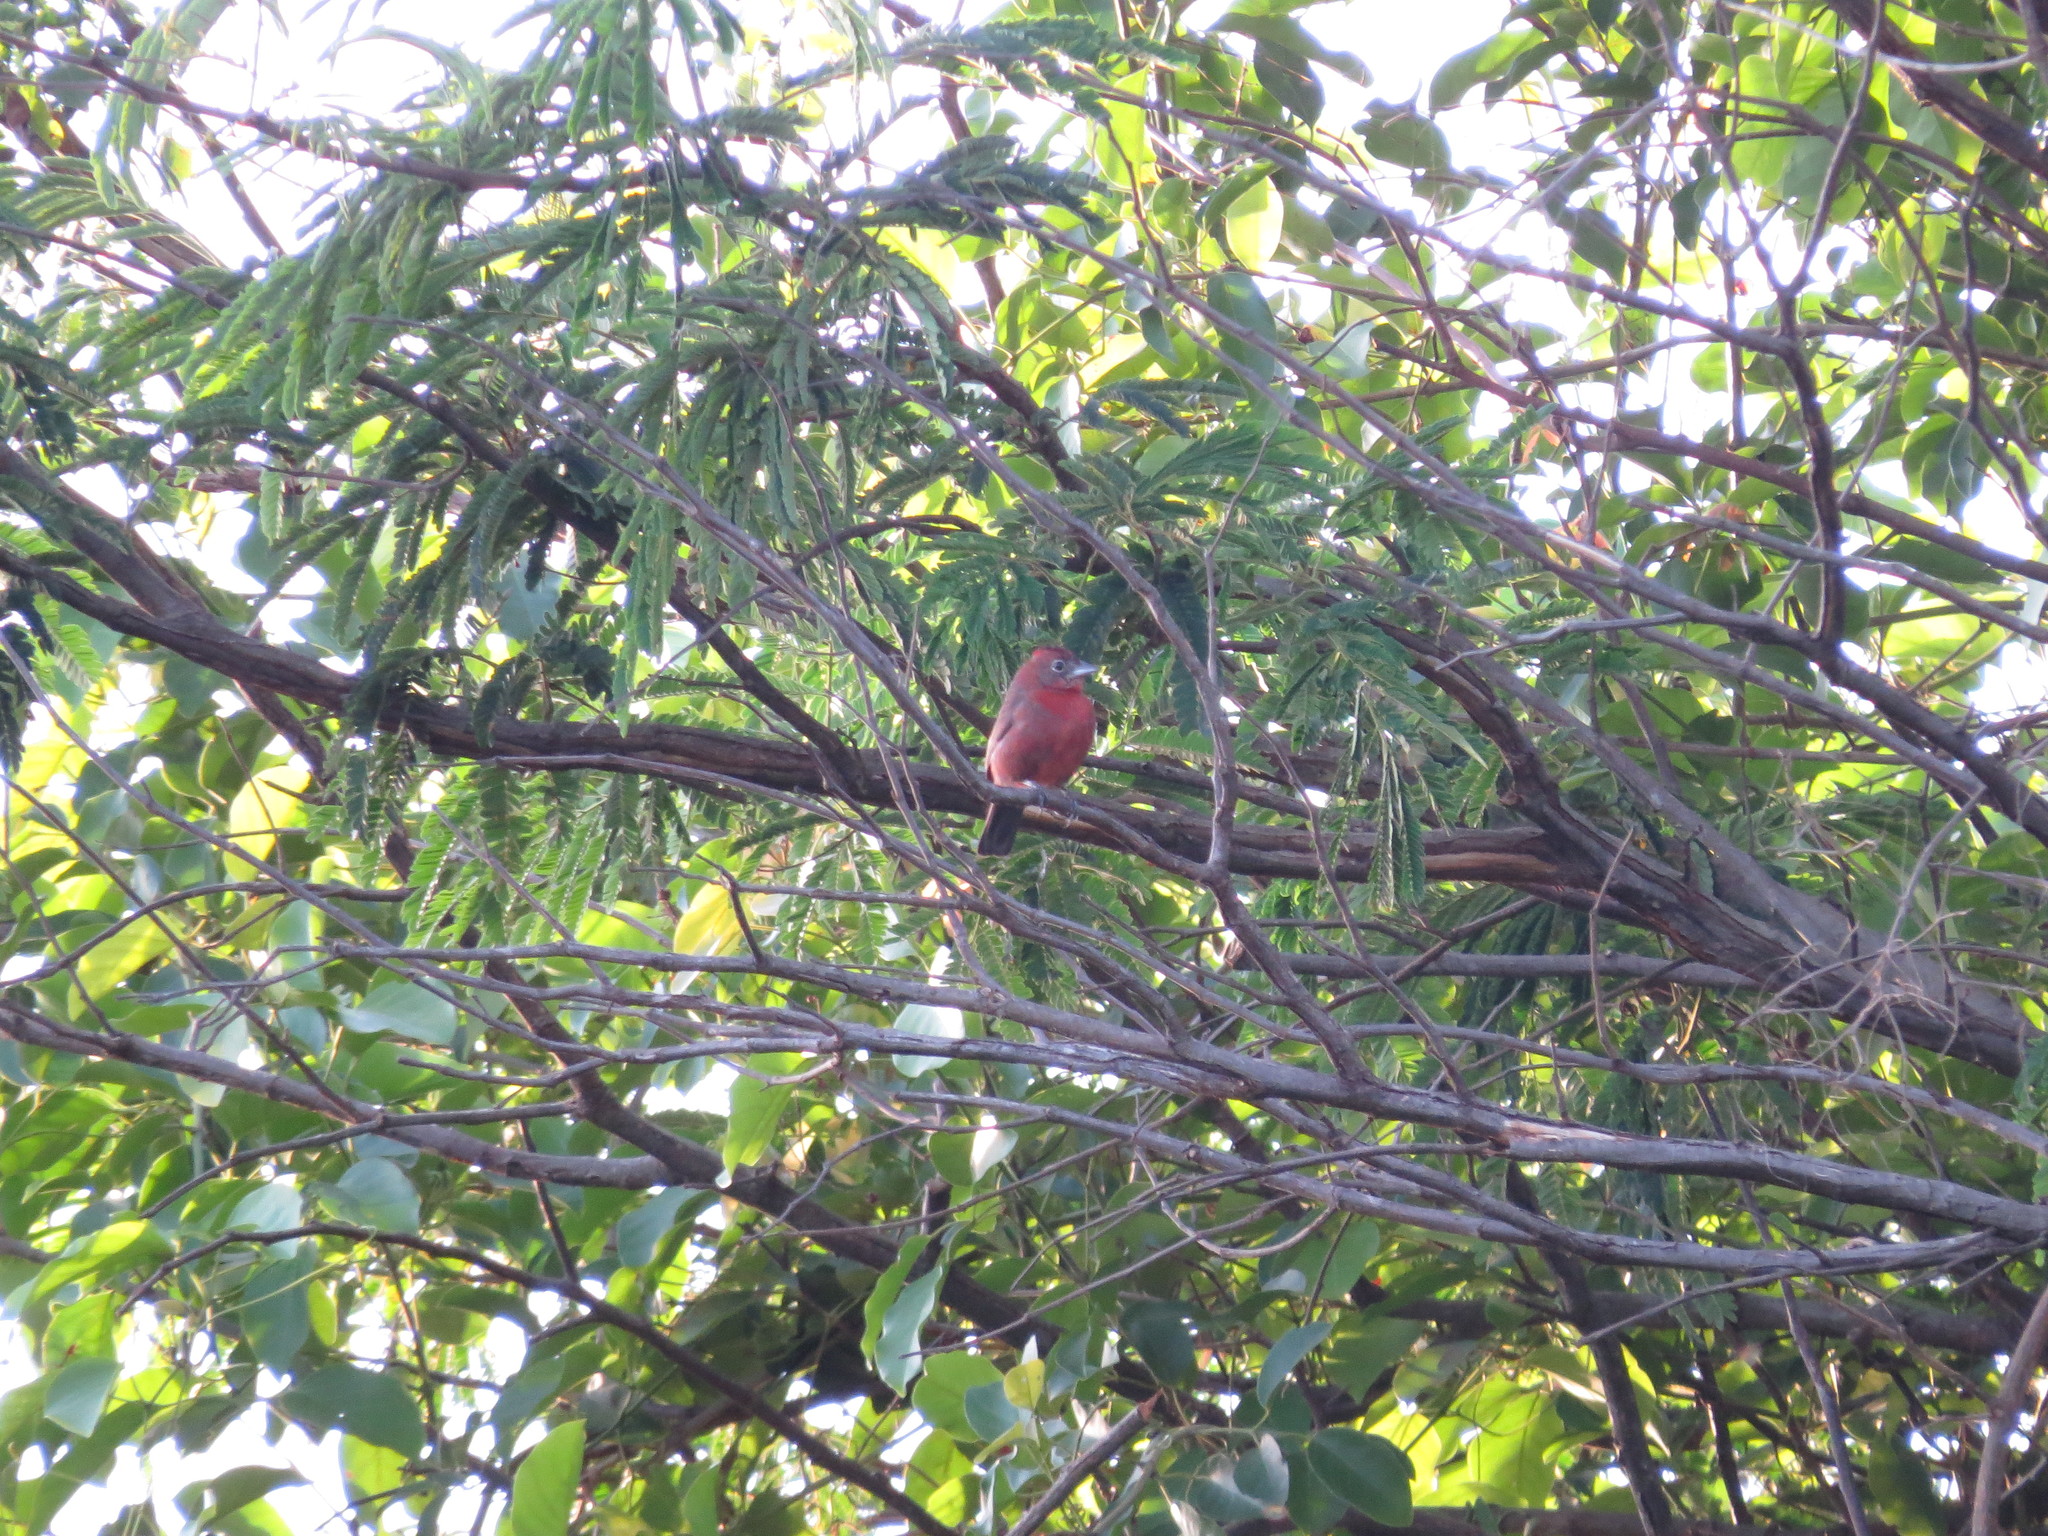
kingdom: Animalia
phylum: Chordata
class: Aves
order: Passeriformes
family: Thraupidae
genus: Coryphospingus
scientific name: Coryphospingus cucullatus
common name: Red pileated finch
